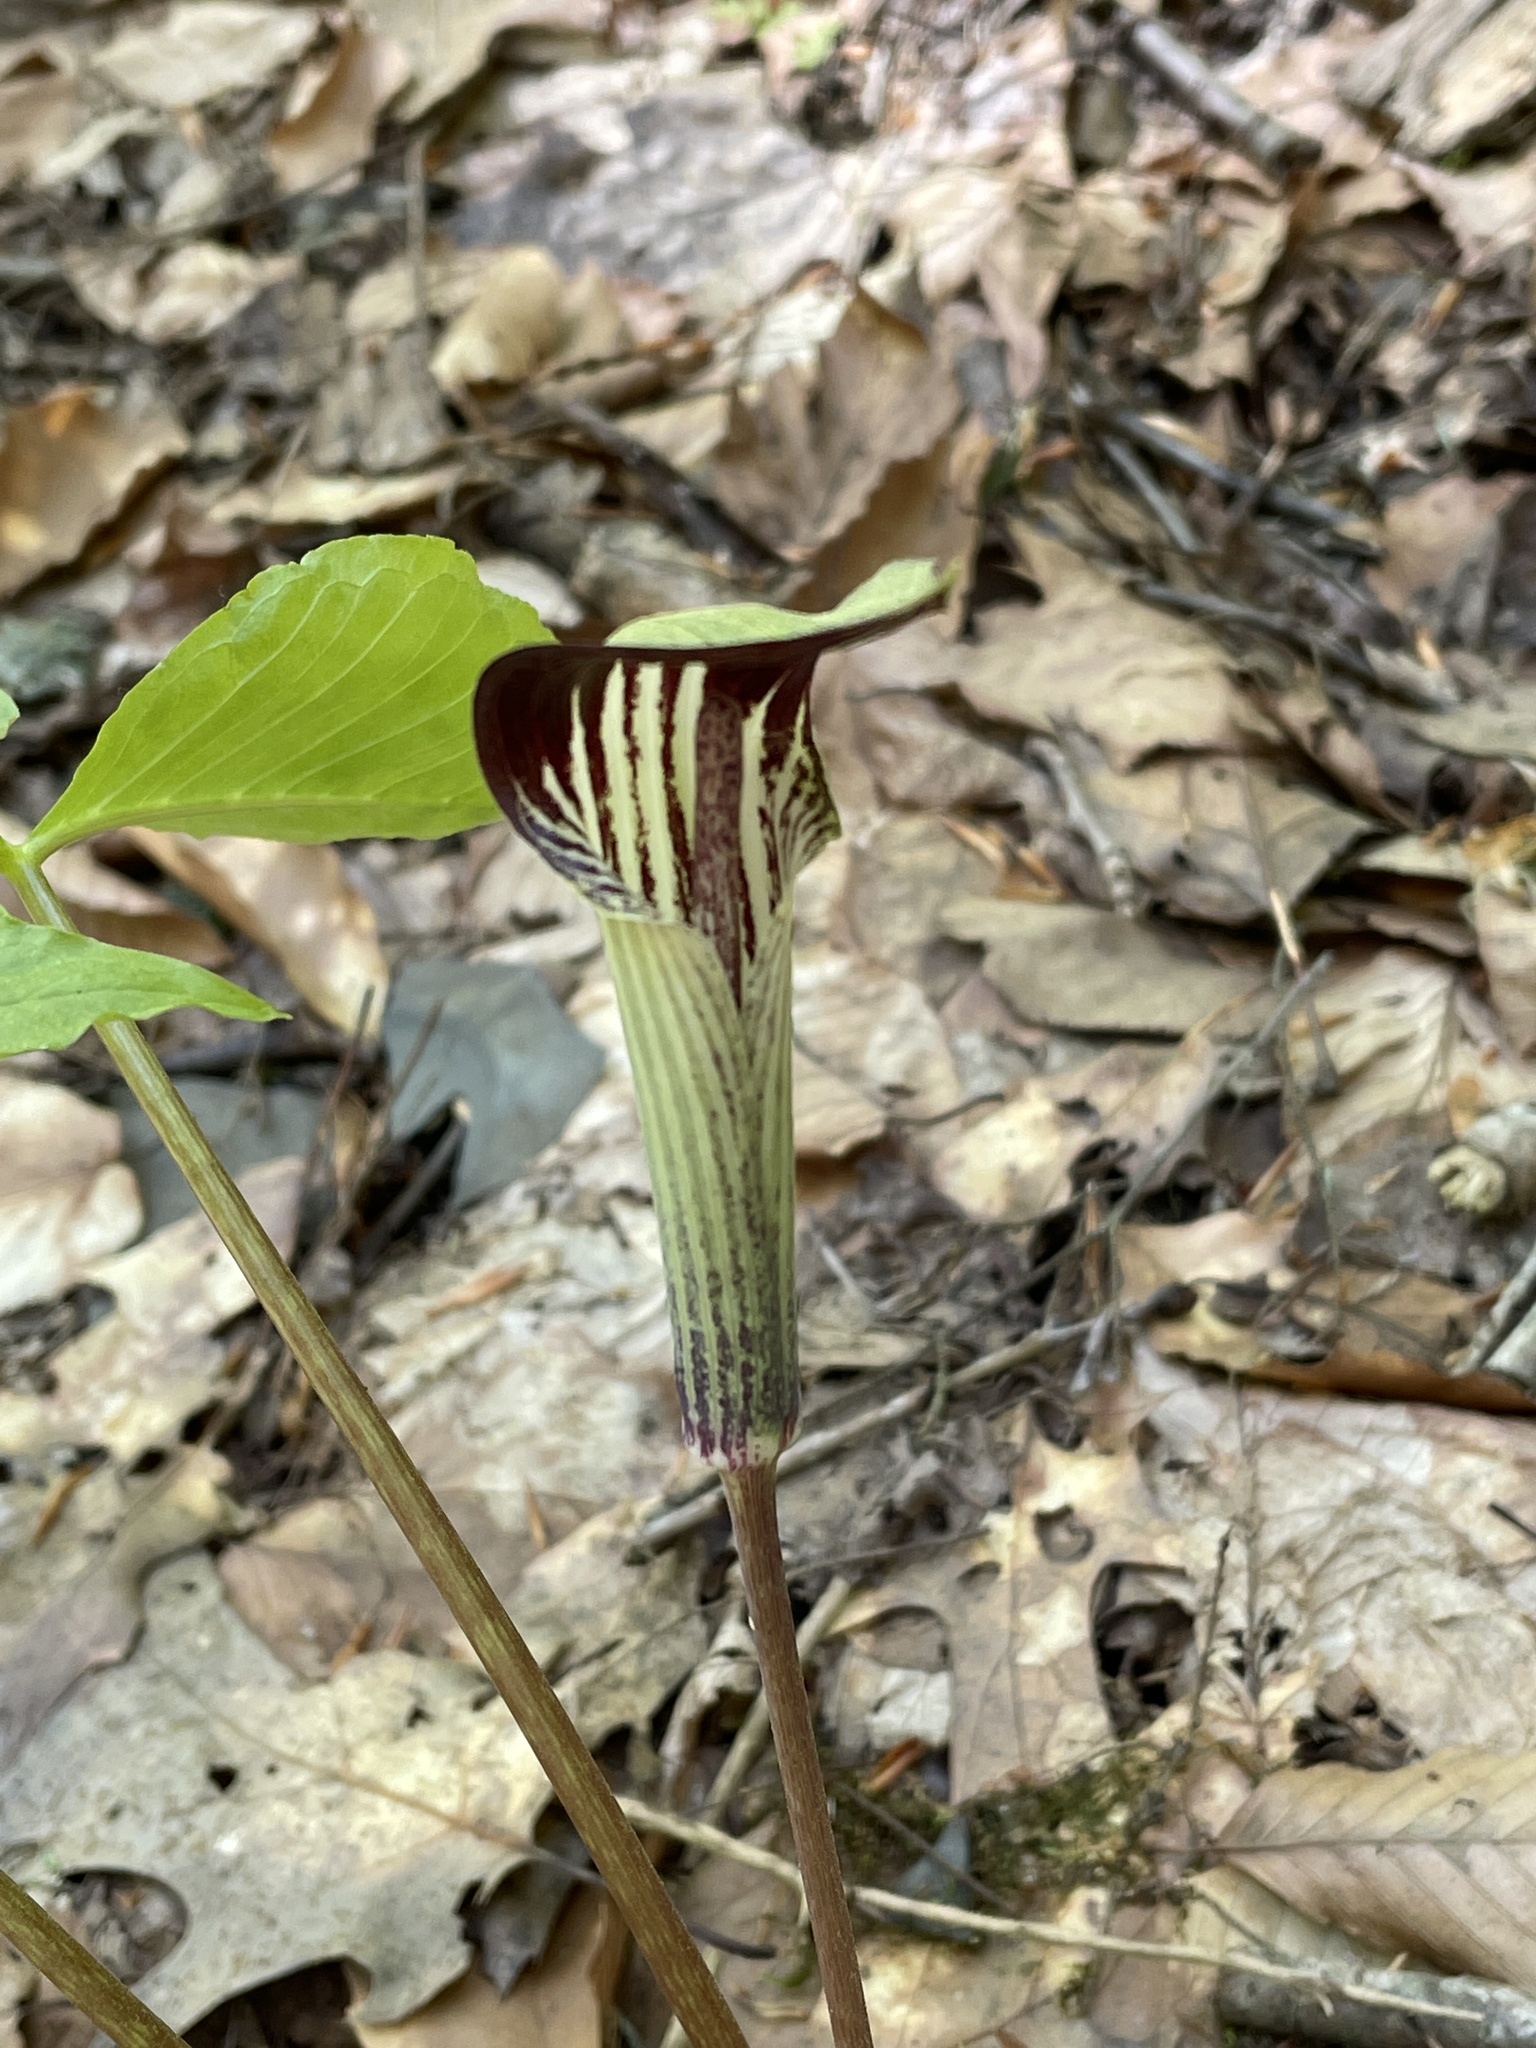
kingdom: Plantae
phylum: Tracheophyta
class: Liliopsida
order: Alismatales
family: Araceae
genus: Arisaema
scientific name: Arisaema triphyllum
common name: Jack-in-the-pulpit
